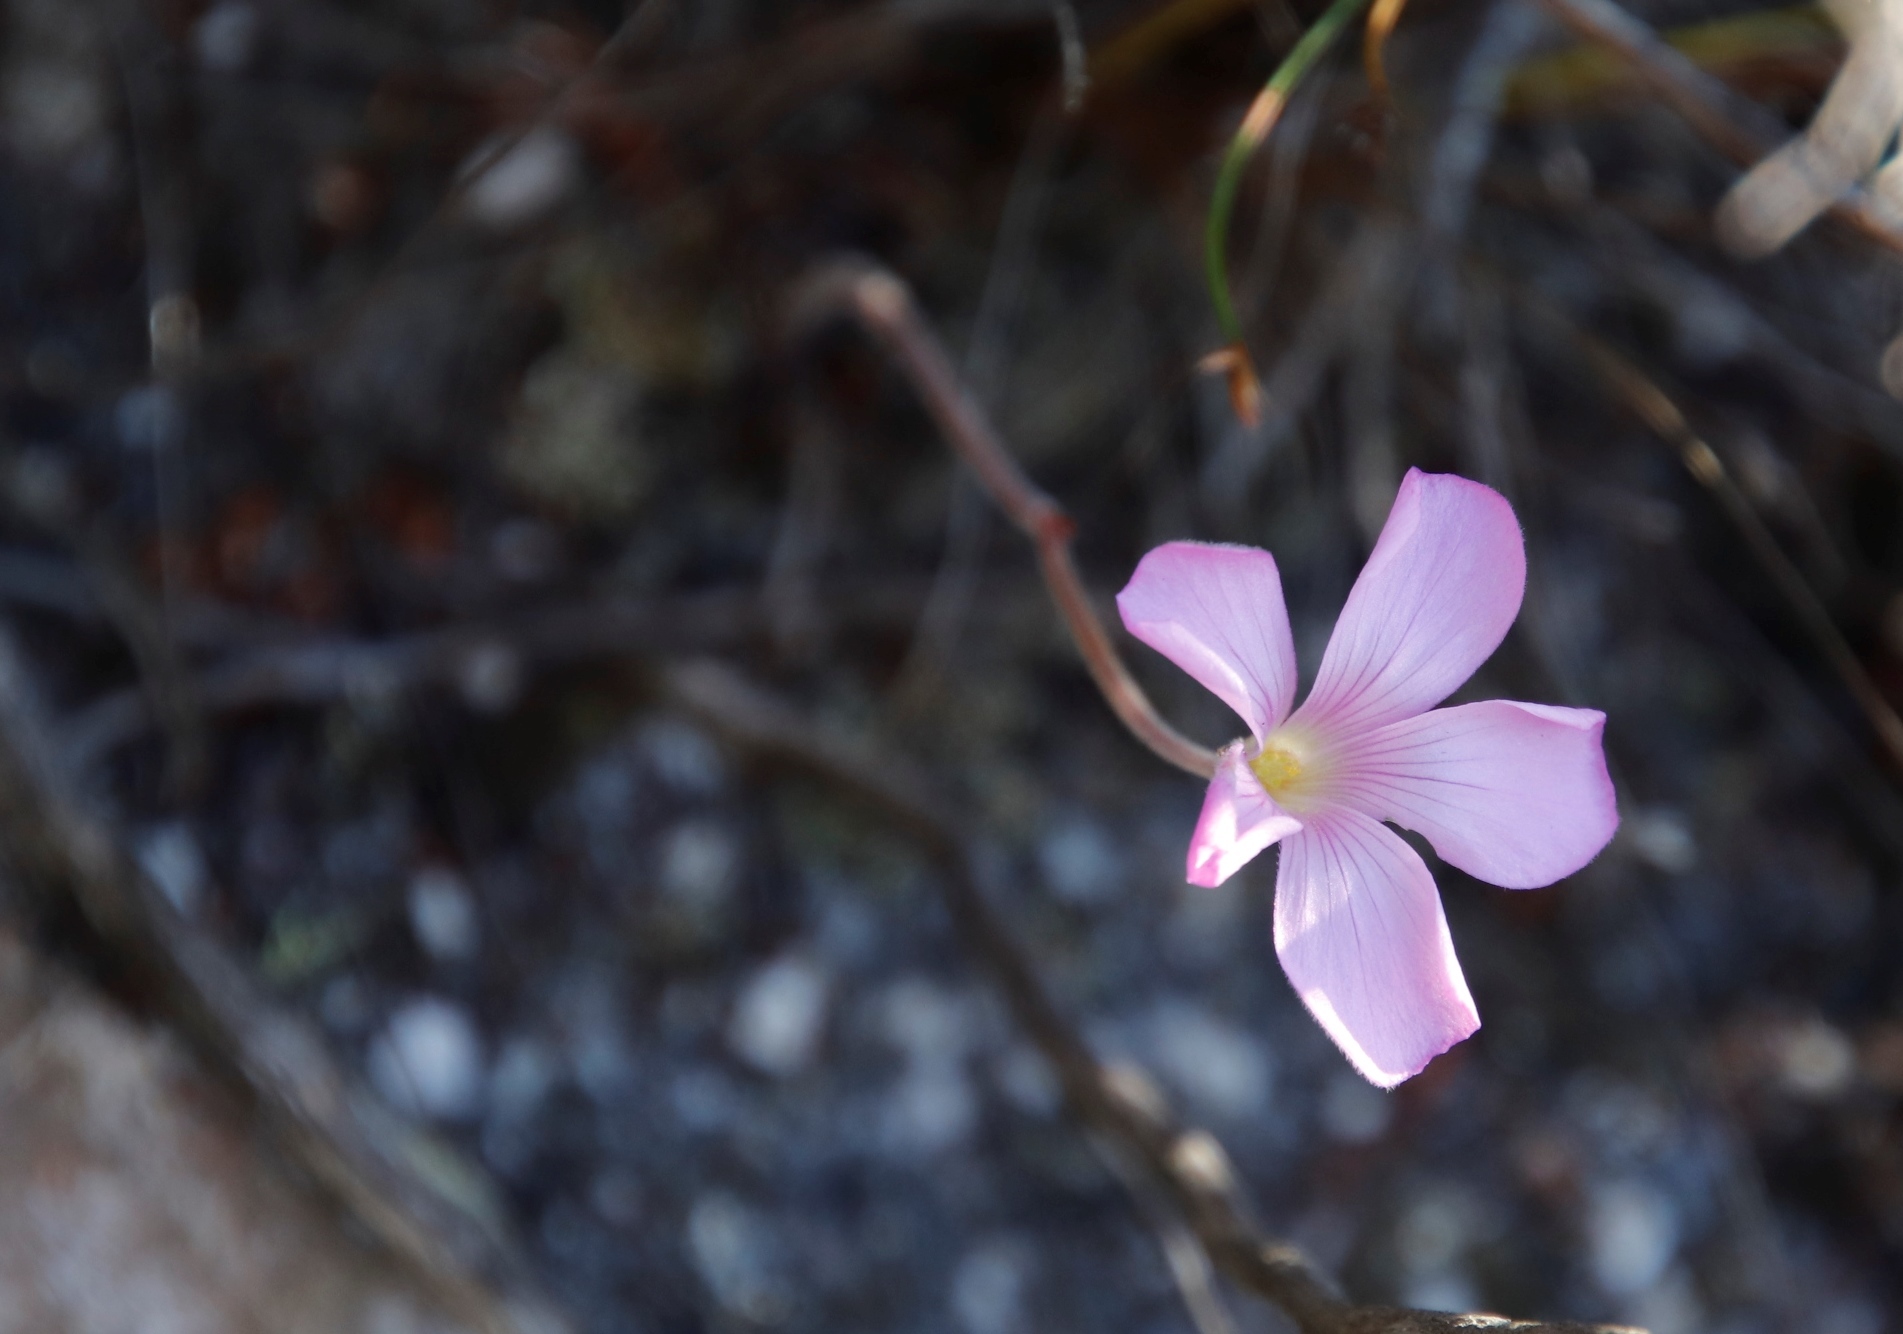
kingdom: Plantae
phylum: Tracheophyta
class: Magnoliopsida
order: Oxalidales
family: Oxalidaceae
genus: Oxalis
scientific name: Oxalis truncatula
